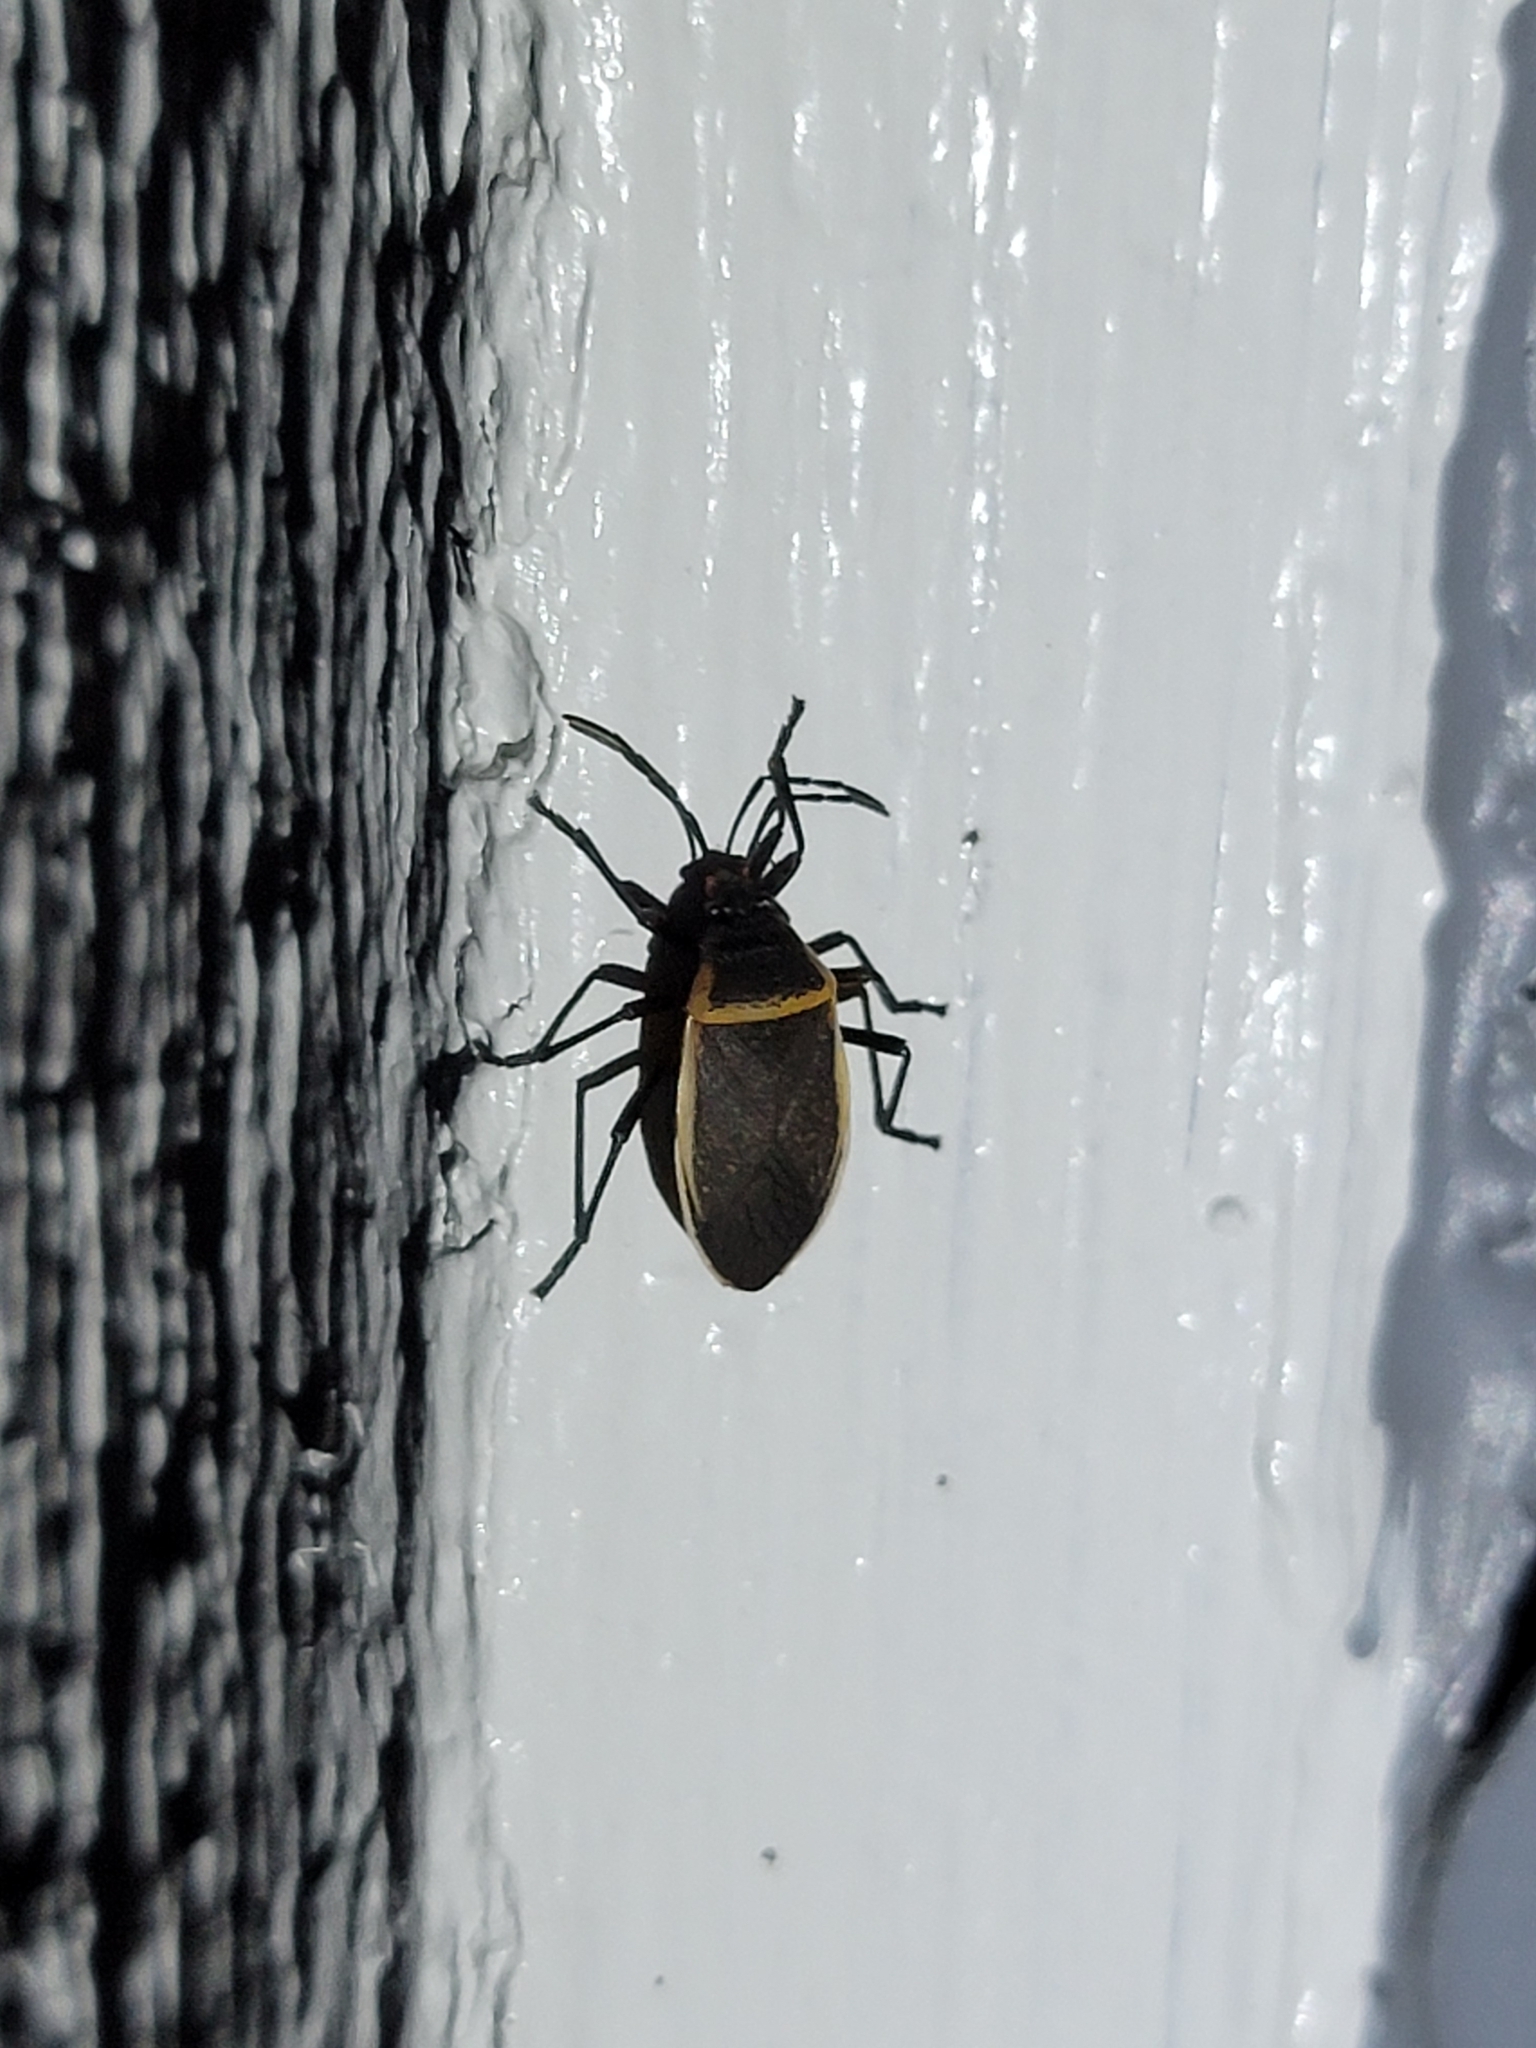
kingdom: Animalia
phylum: Arthropoda
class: Insecta
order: Hemiptera
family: Largidae
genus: Largus
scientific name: Largus californicus
